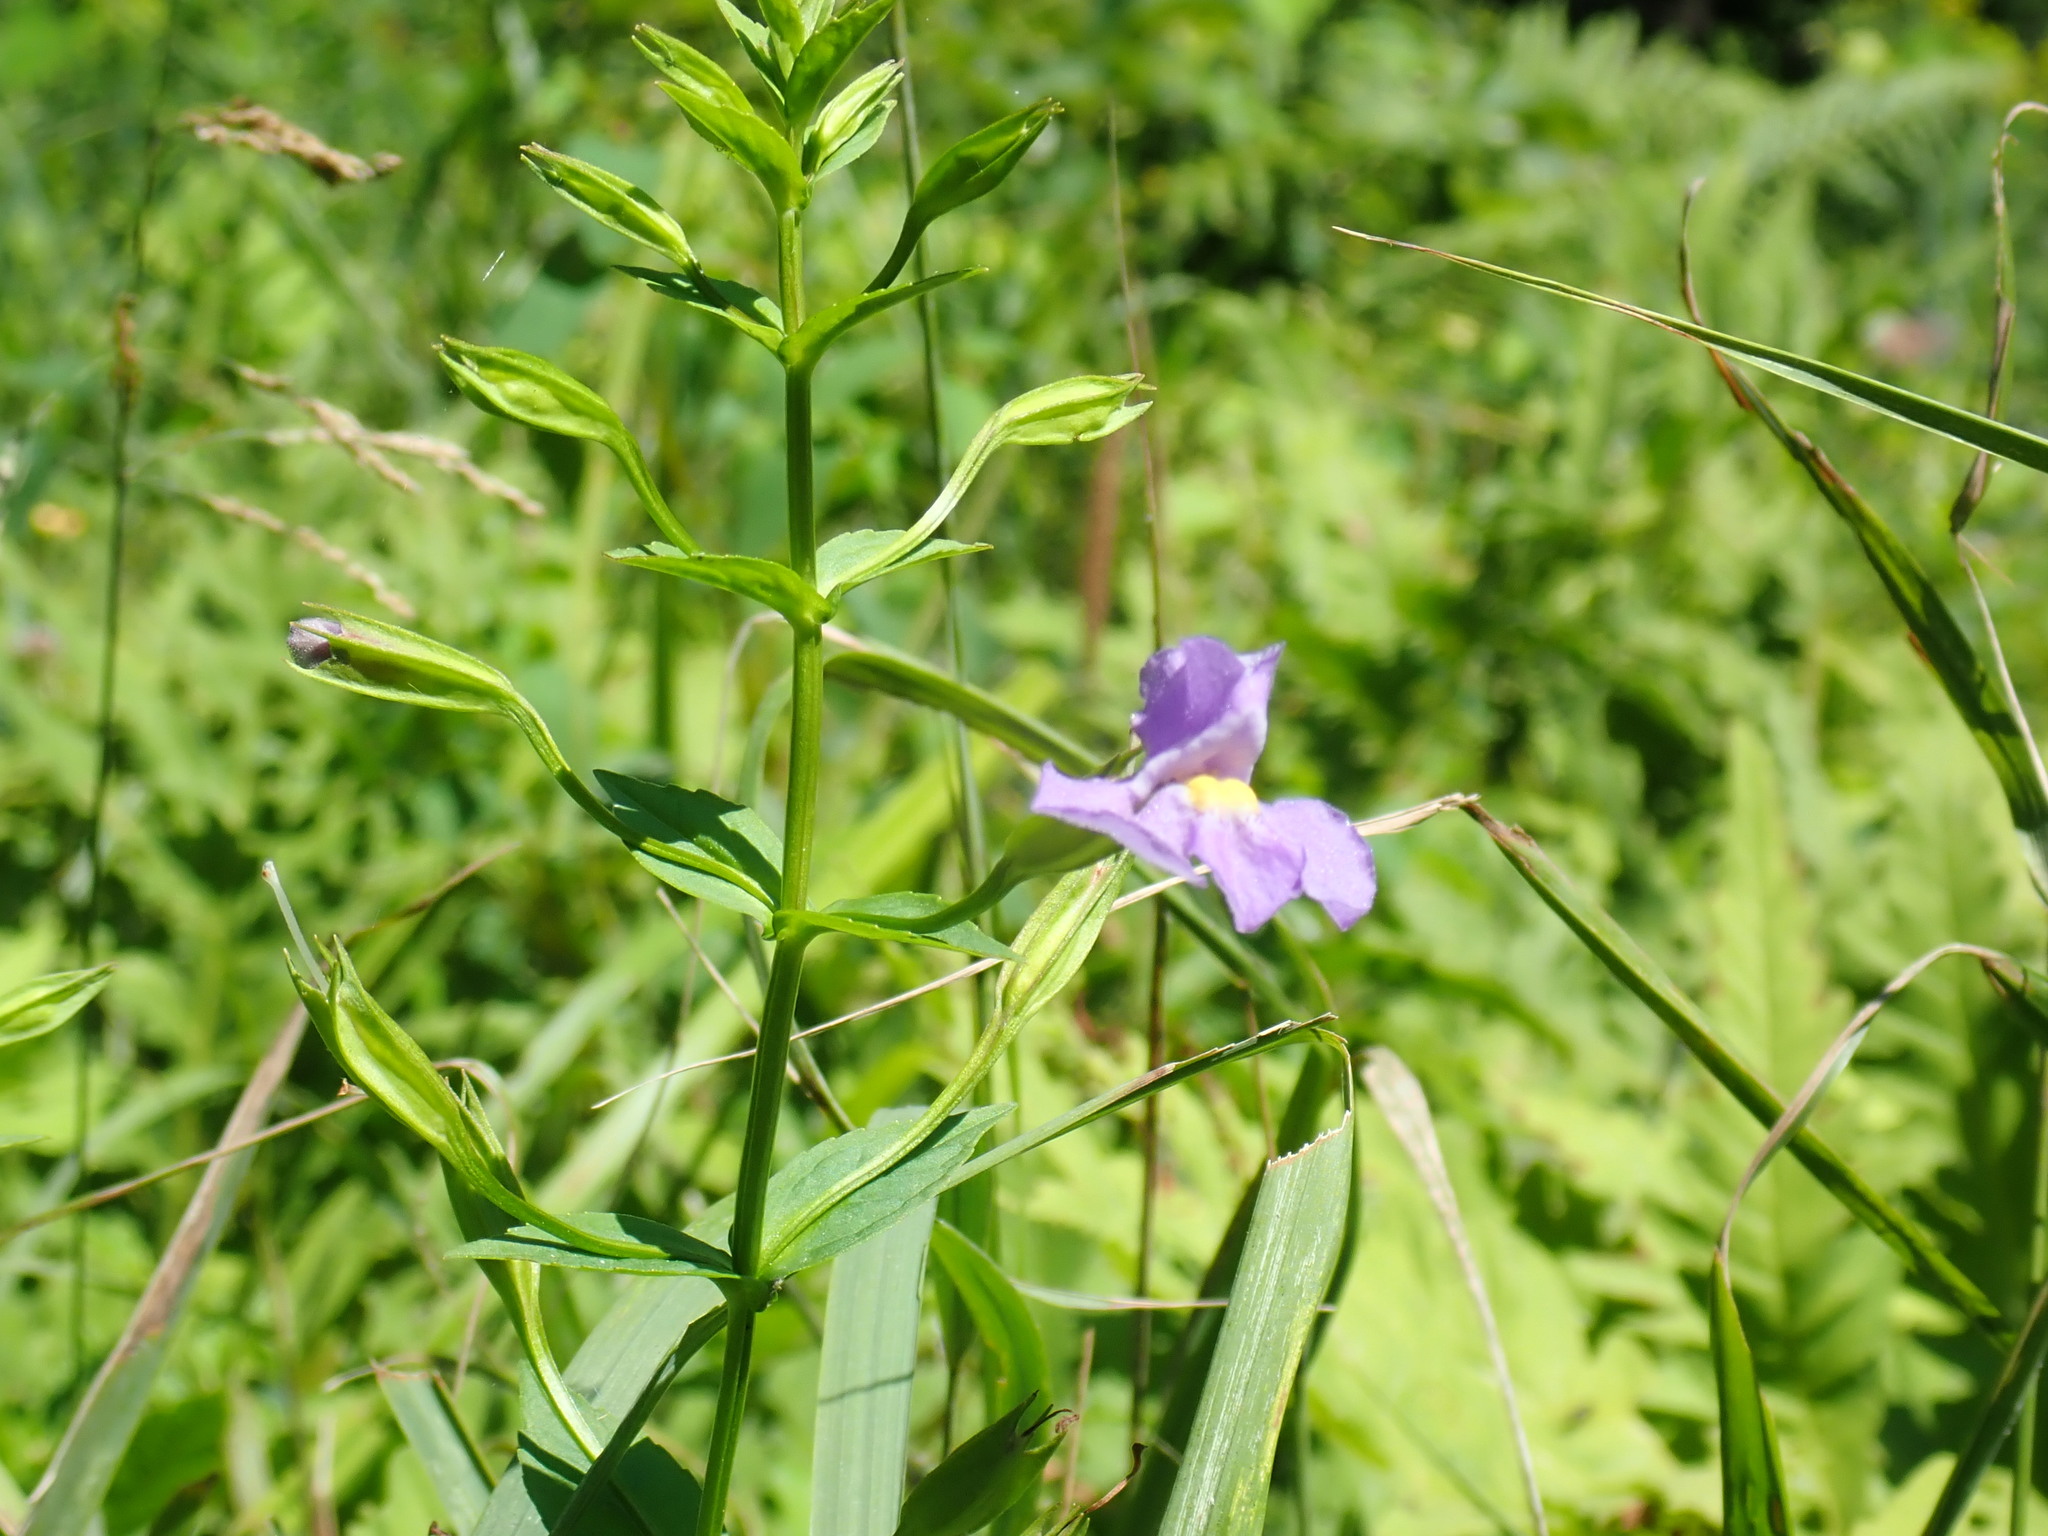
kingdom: Plantae
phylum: Tracheophyta
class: Magnoliopsida
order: Lamiales
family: Phrymaceae
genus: Mimulus
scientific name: Mimulus ringens
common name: Allegheny monkeyflower
